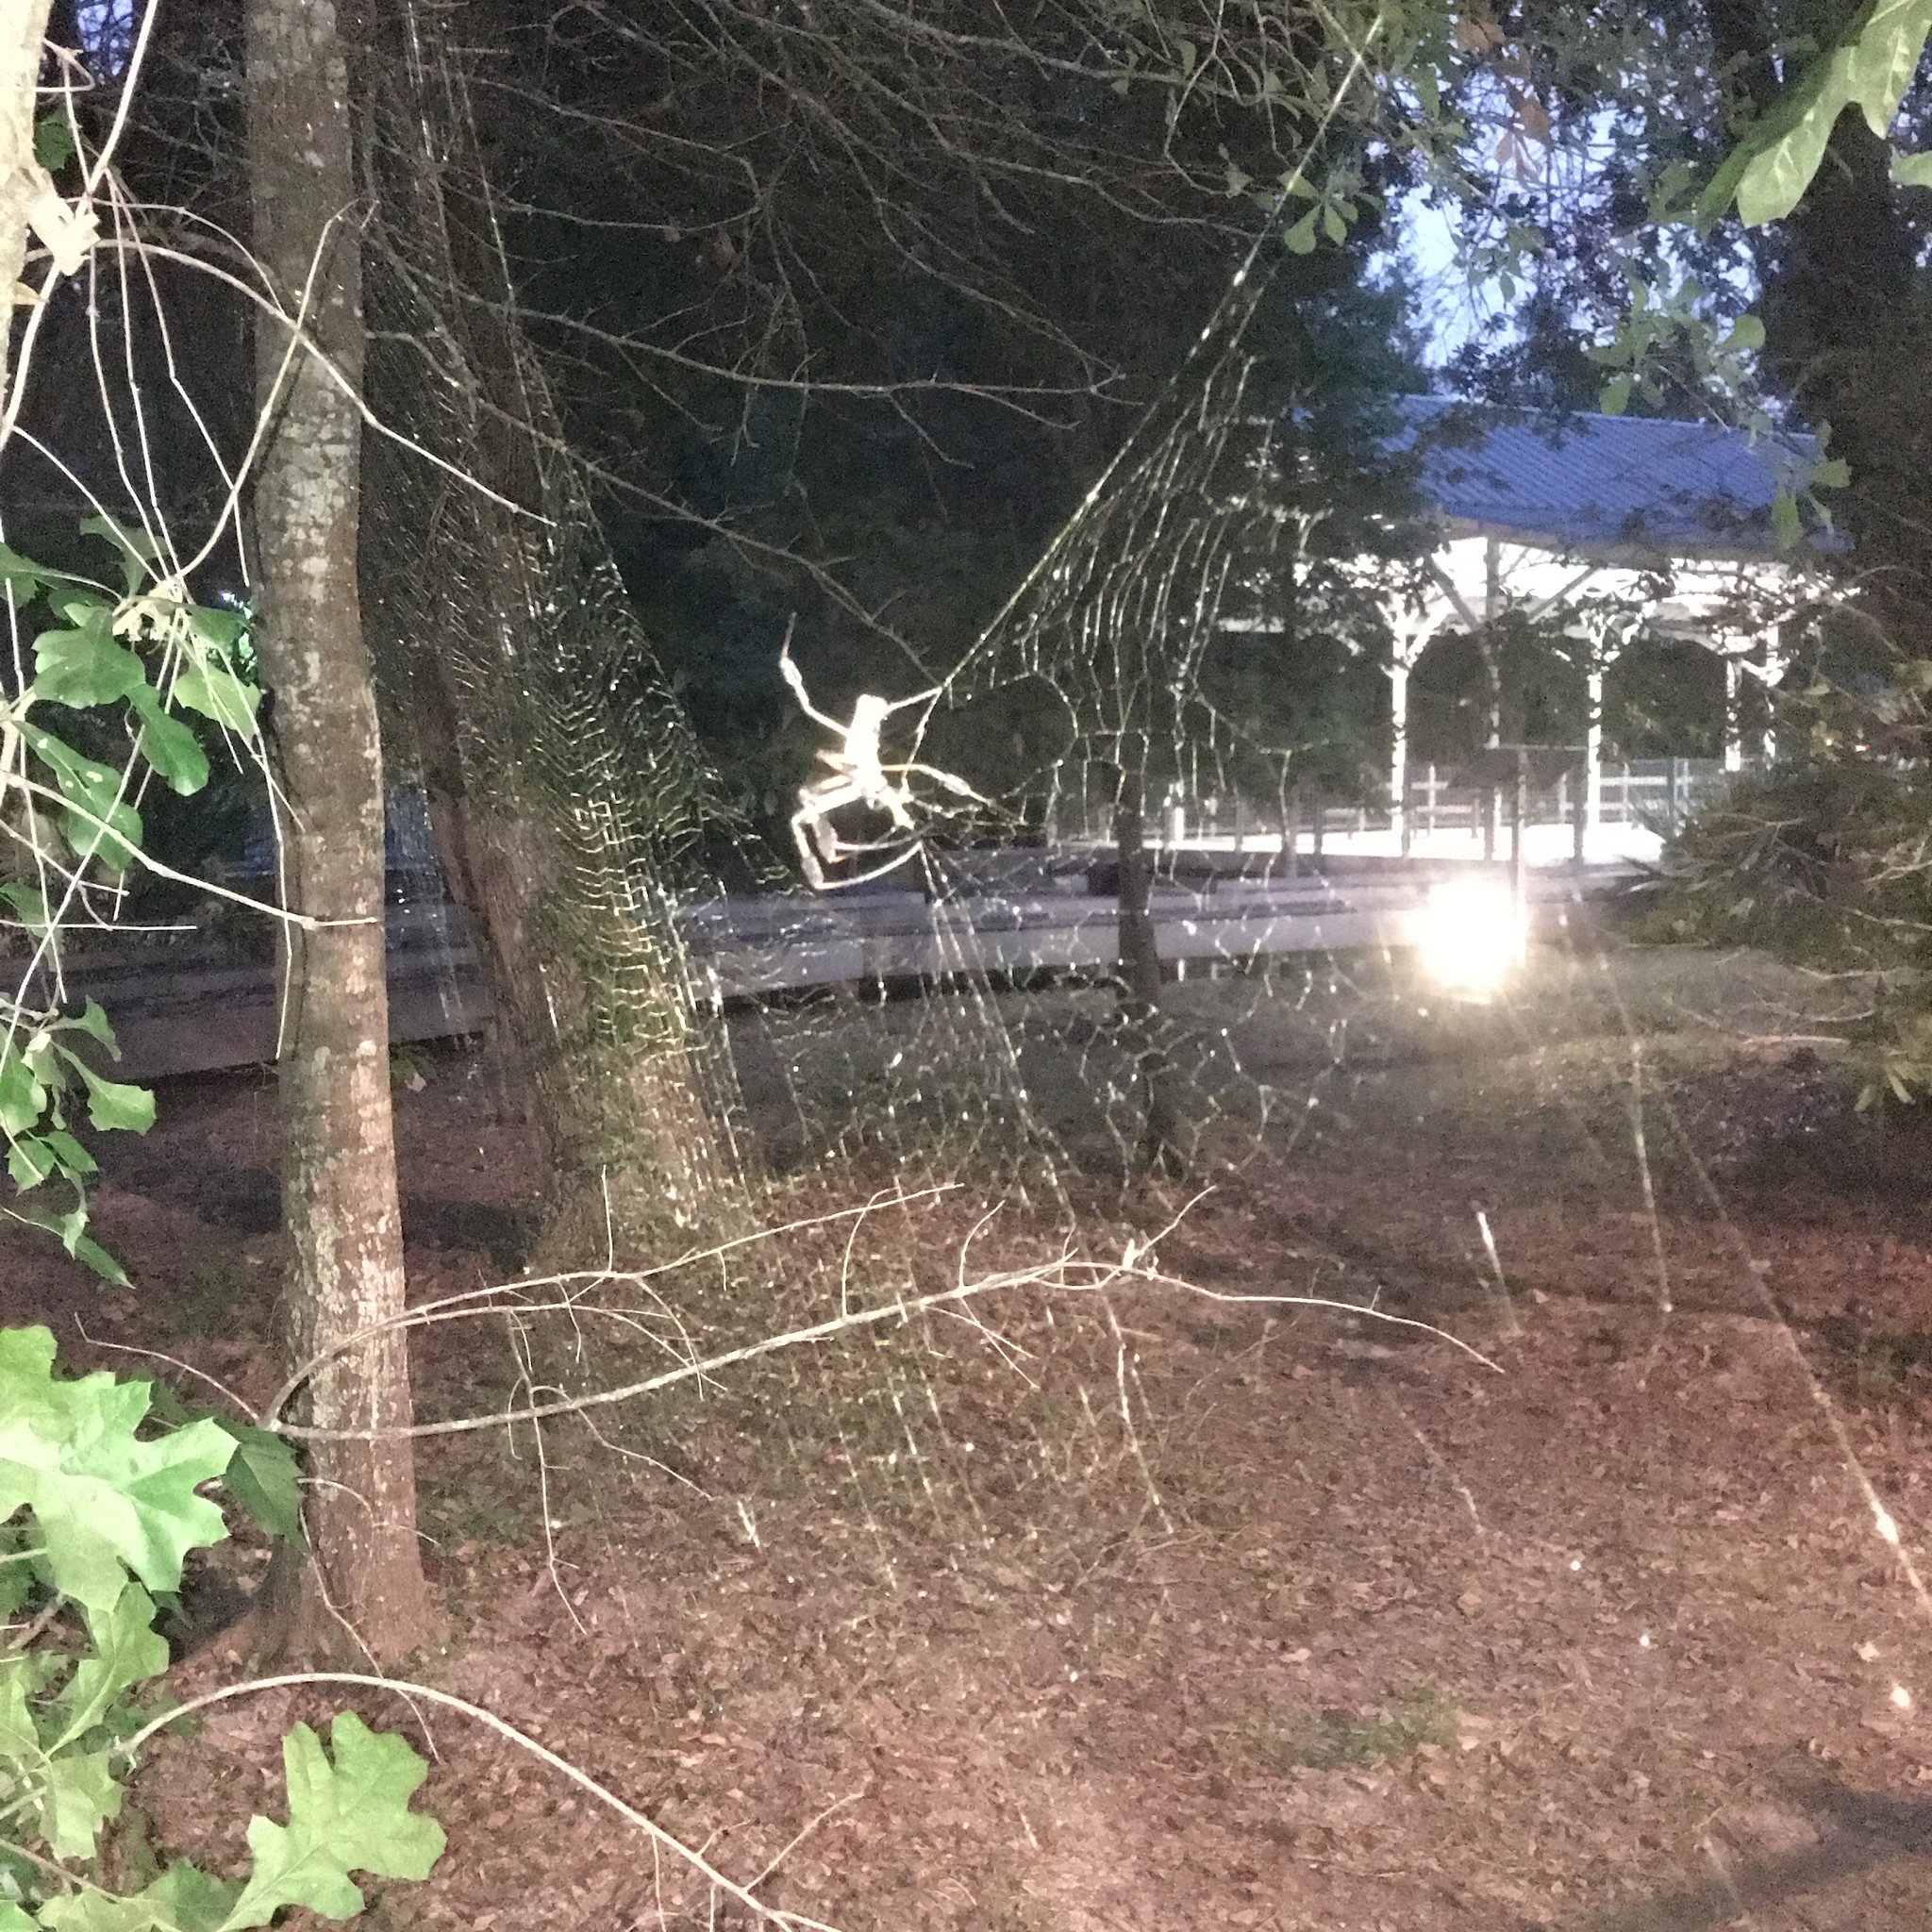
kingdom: Animalia
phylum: Arthropoda
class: Arachnida
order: Araneae
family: Araneidae
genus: Trichonephila
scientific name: Trichonephila clavipes
